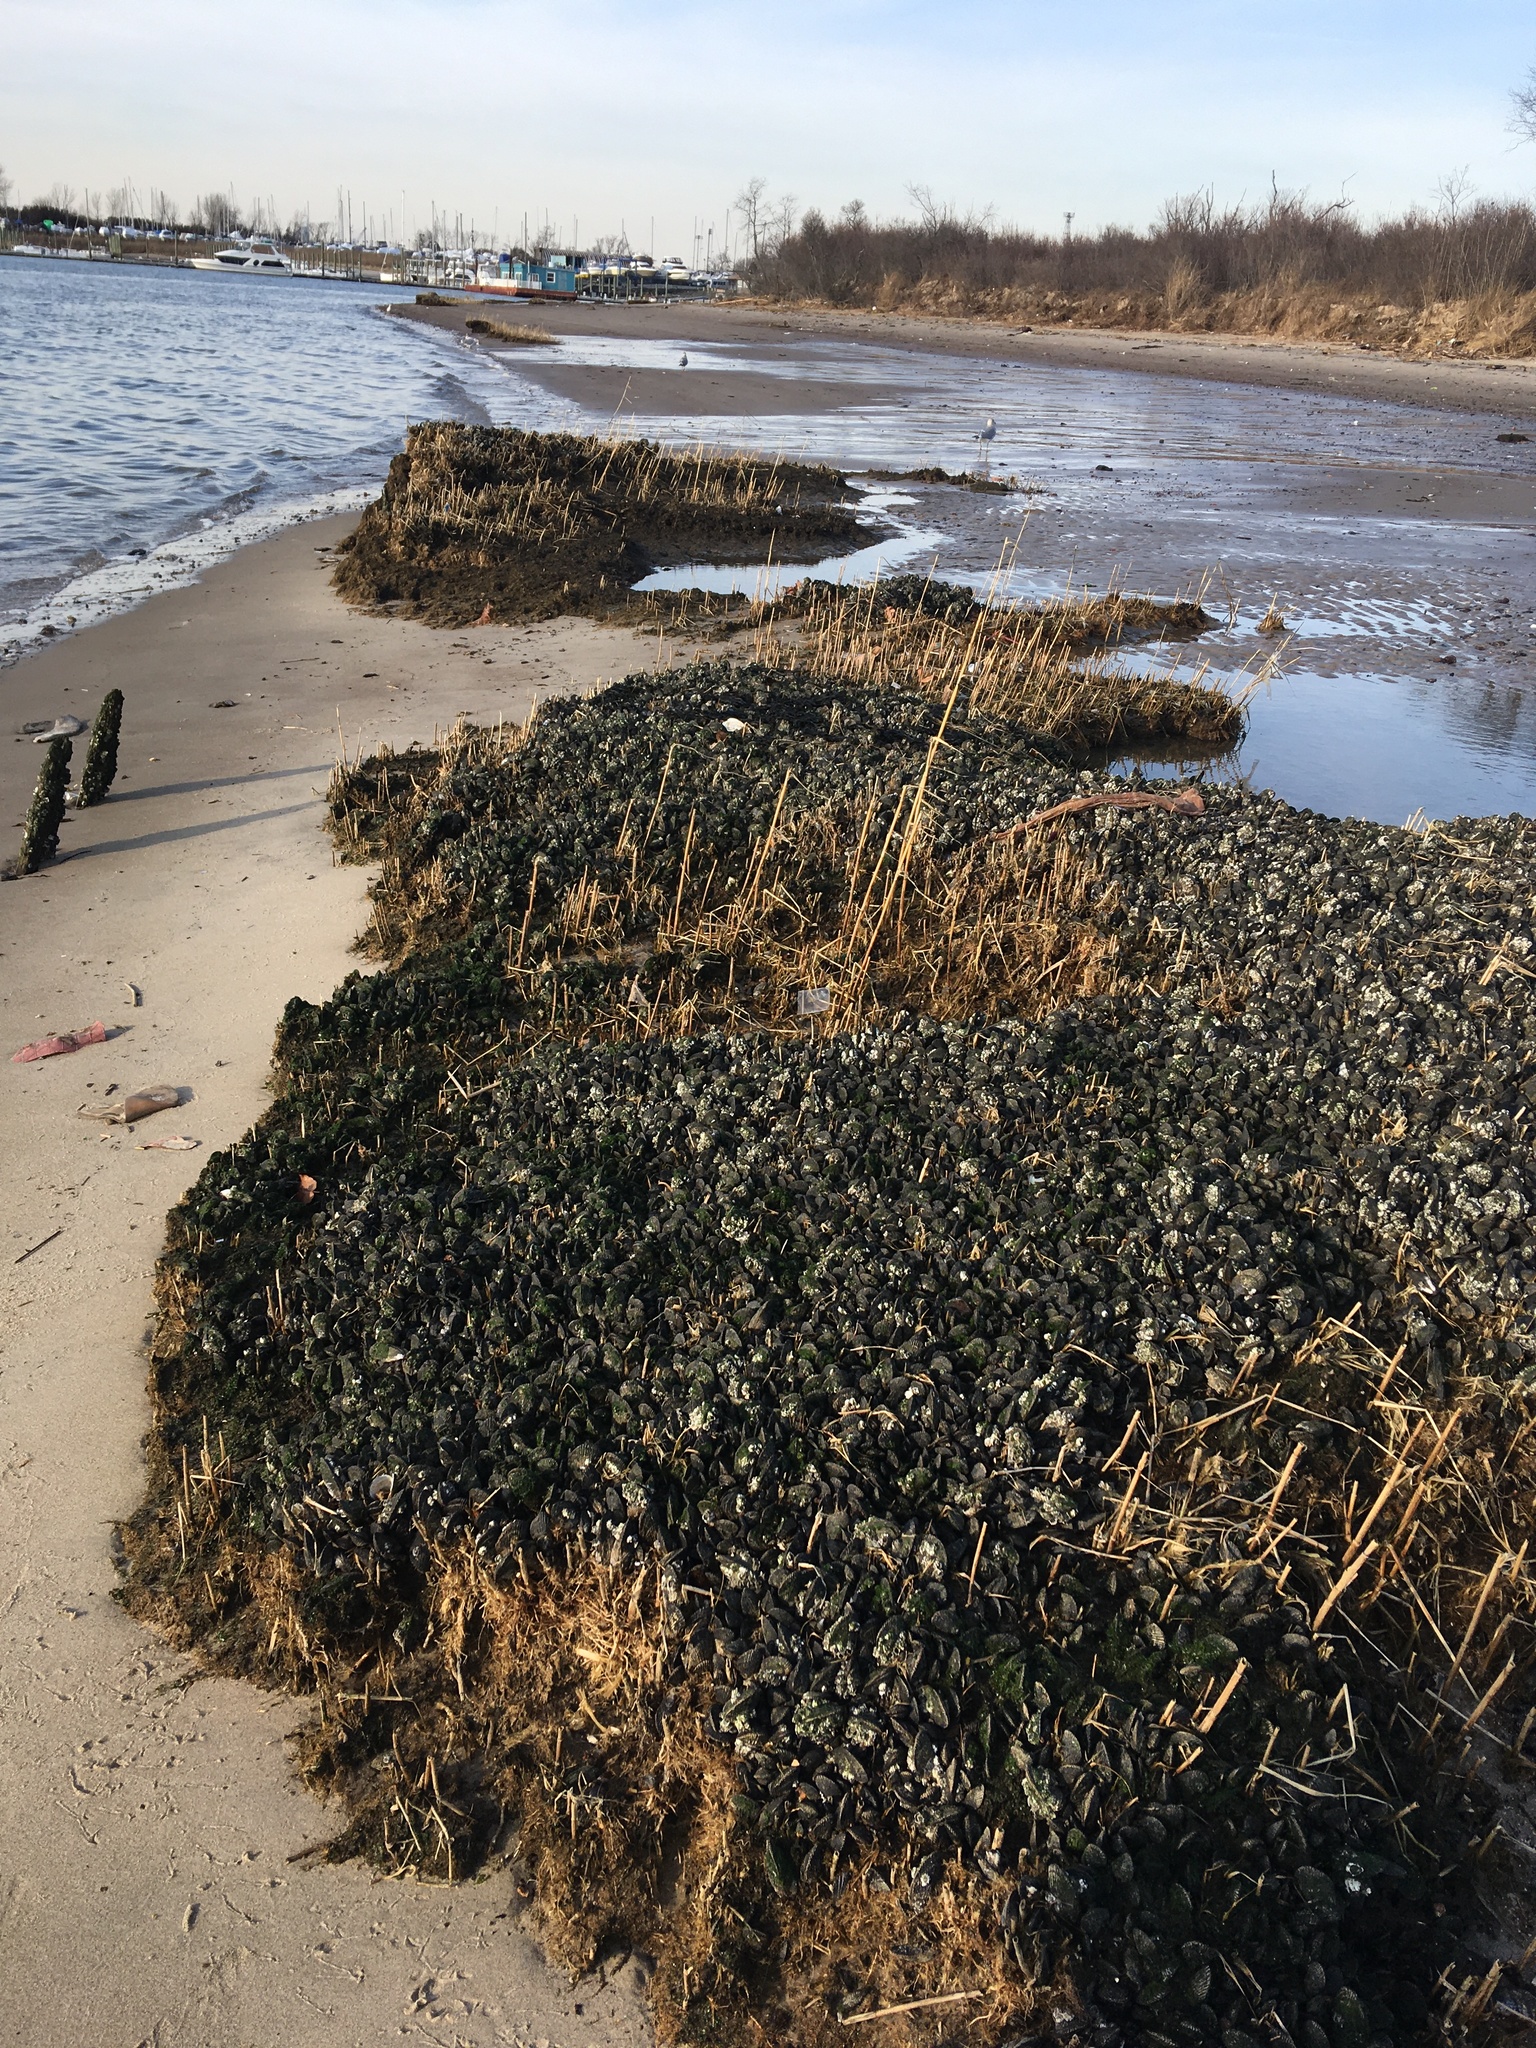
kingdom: Animalia
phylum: Mollusca
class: Bivalvia
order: Mytilida
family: Mytilidae
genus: Geukensia
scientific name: Geukensia demissa
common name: Ribbed mussel
